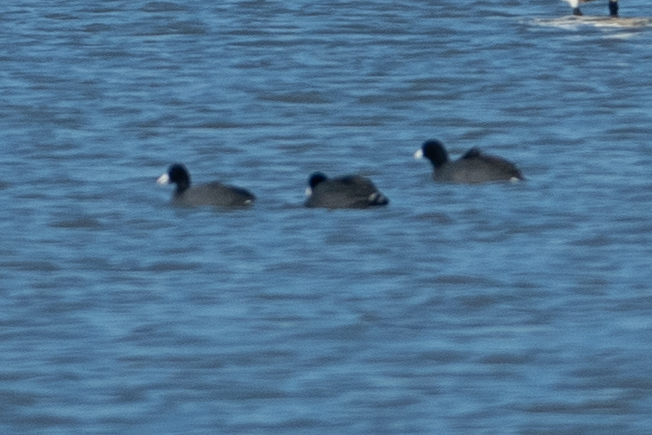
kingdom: Animalia
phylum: Chordata
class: Aves
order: Gruiformes
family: Rallidae
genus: Fulica
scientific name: Fulica americana
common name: American coot
